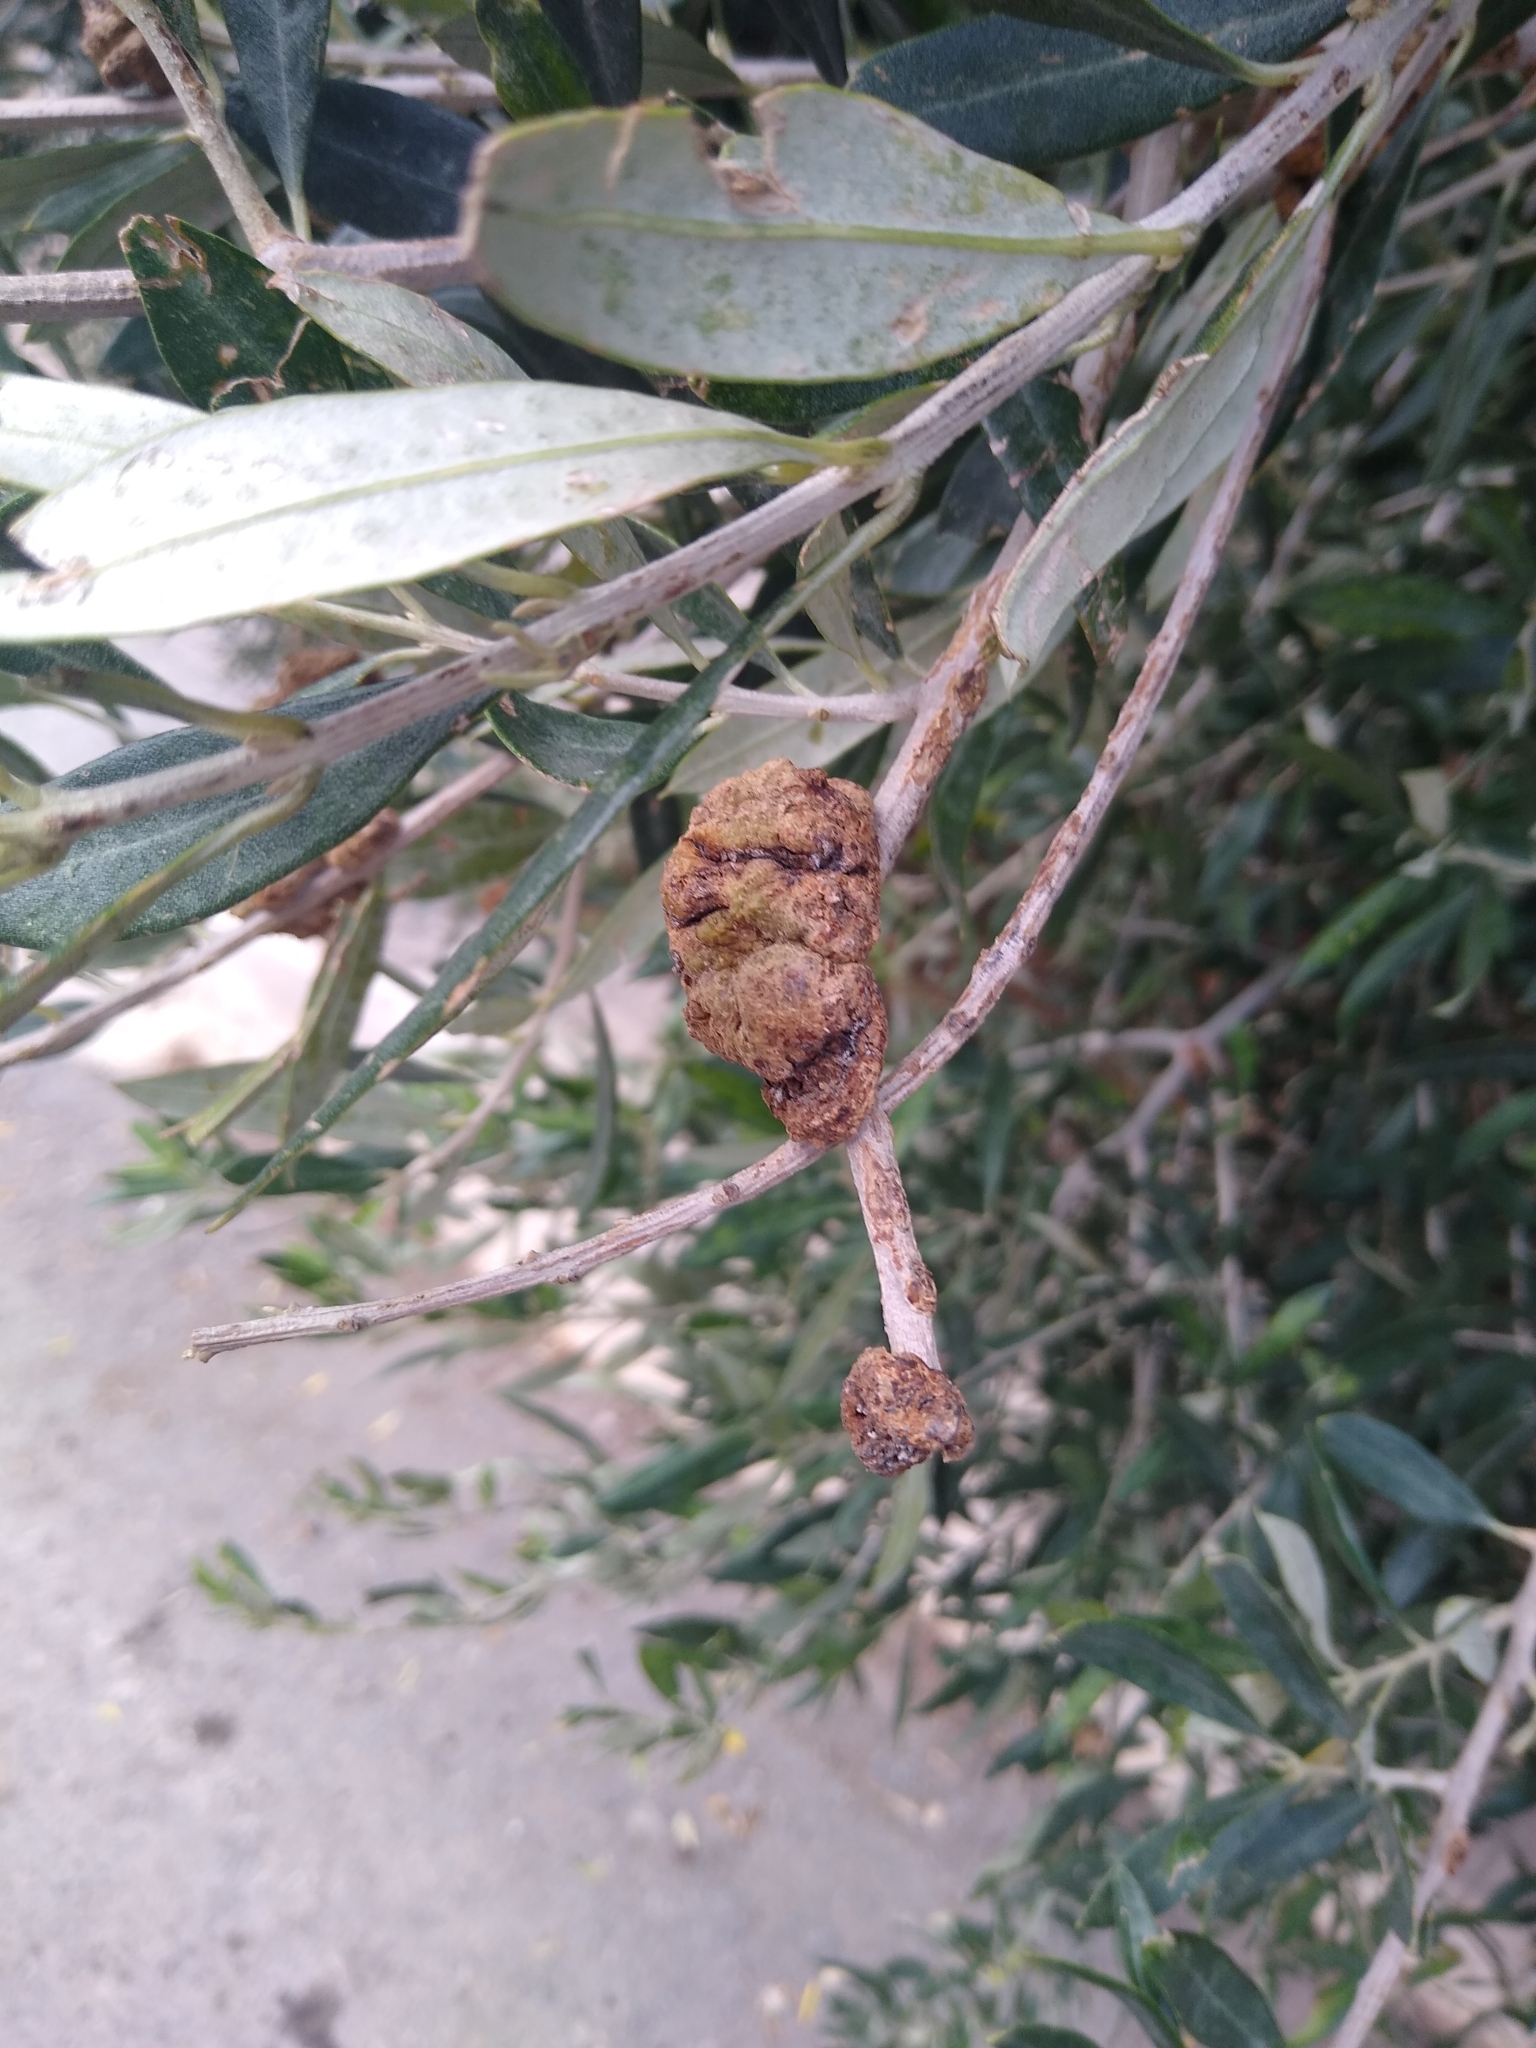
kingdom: Bacteria
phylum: Proteobacteria
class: Gammaproteobacteria
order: Pseudomonadales
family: Pseudomonadaceae
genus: Pseudomonas
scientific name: Pseudomonas
